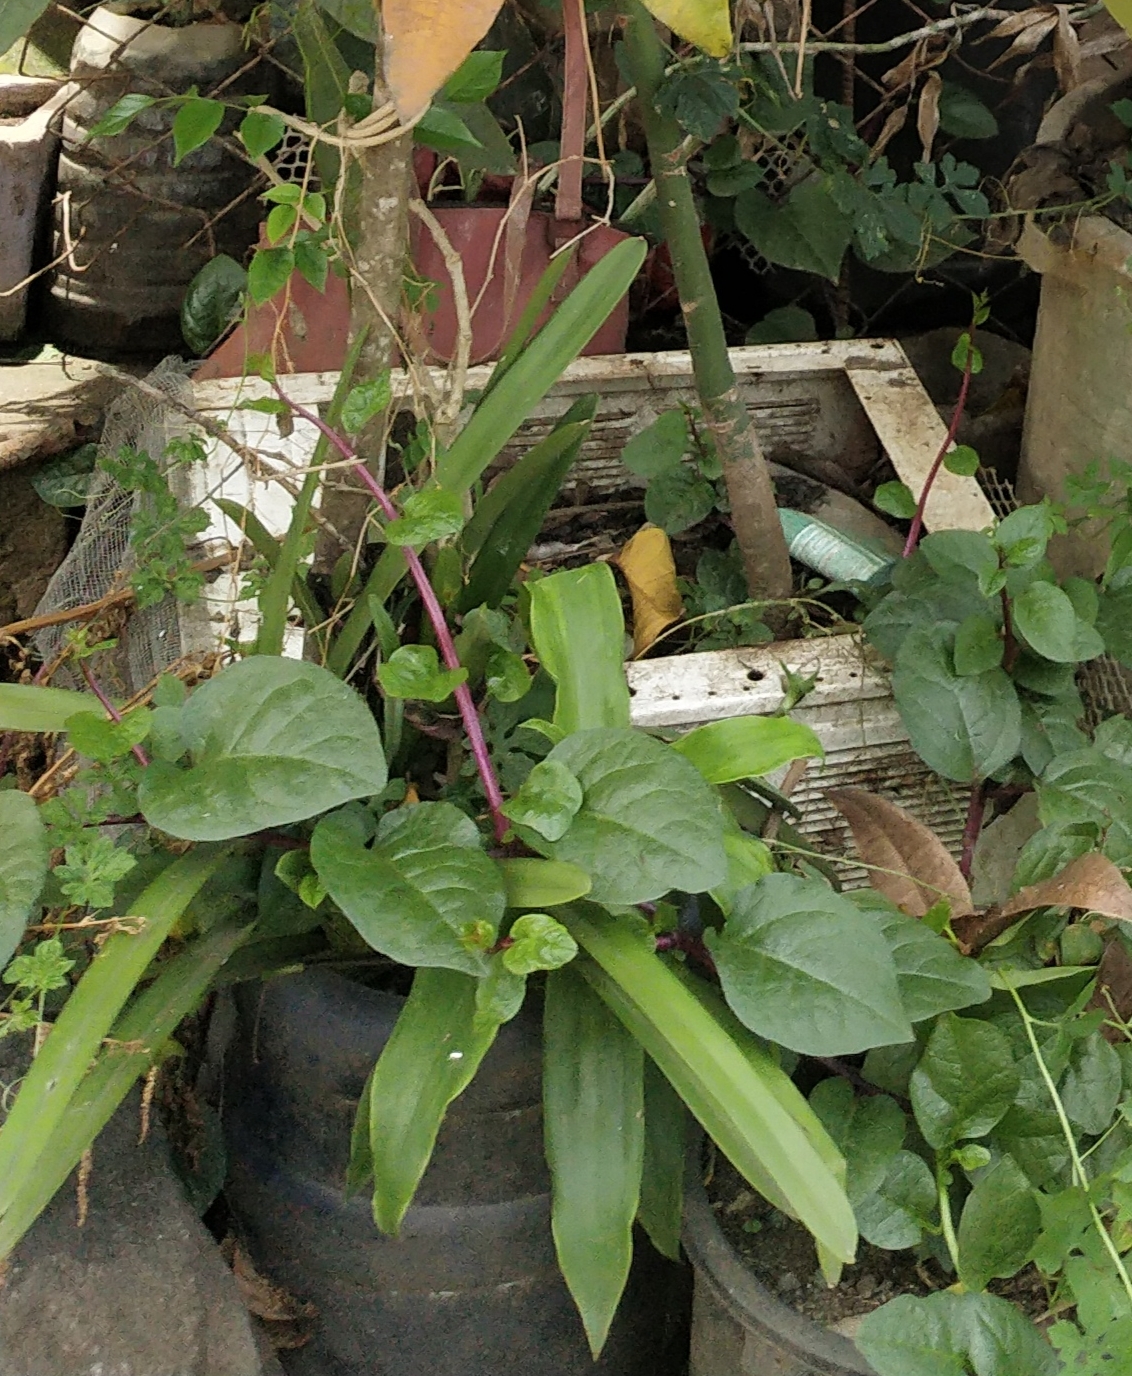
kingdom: Plantae
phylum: Tracheophyta
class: Magnoliopsida
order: Caryophyllales
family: Basellaceae
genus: Basella
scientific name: Basella alba
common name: Indian spinach
